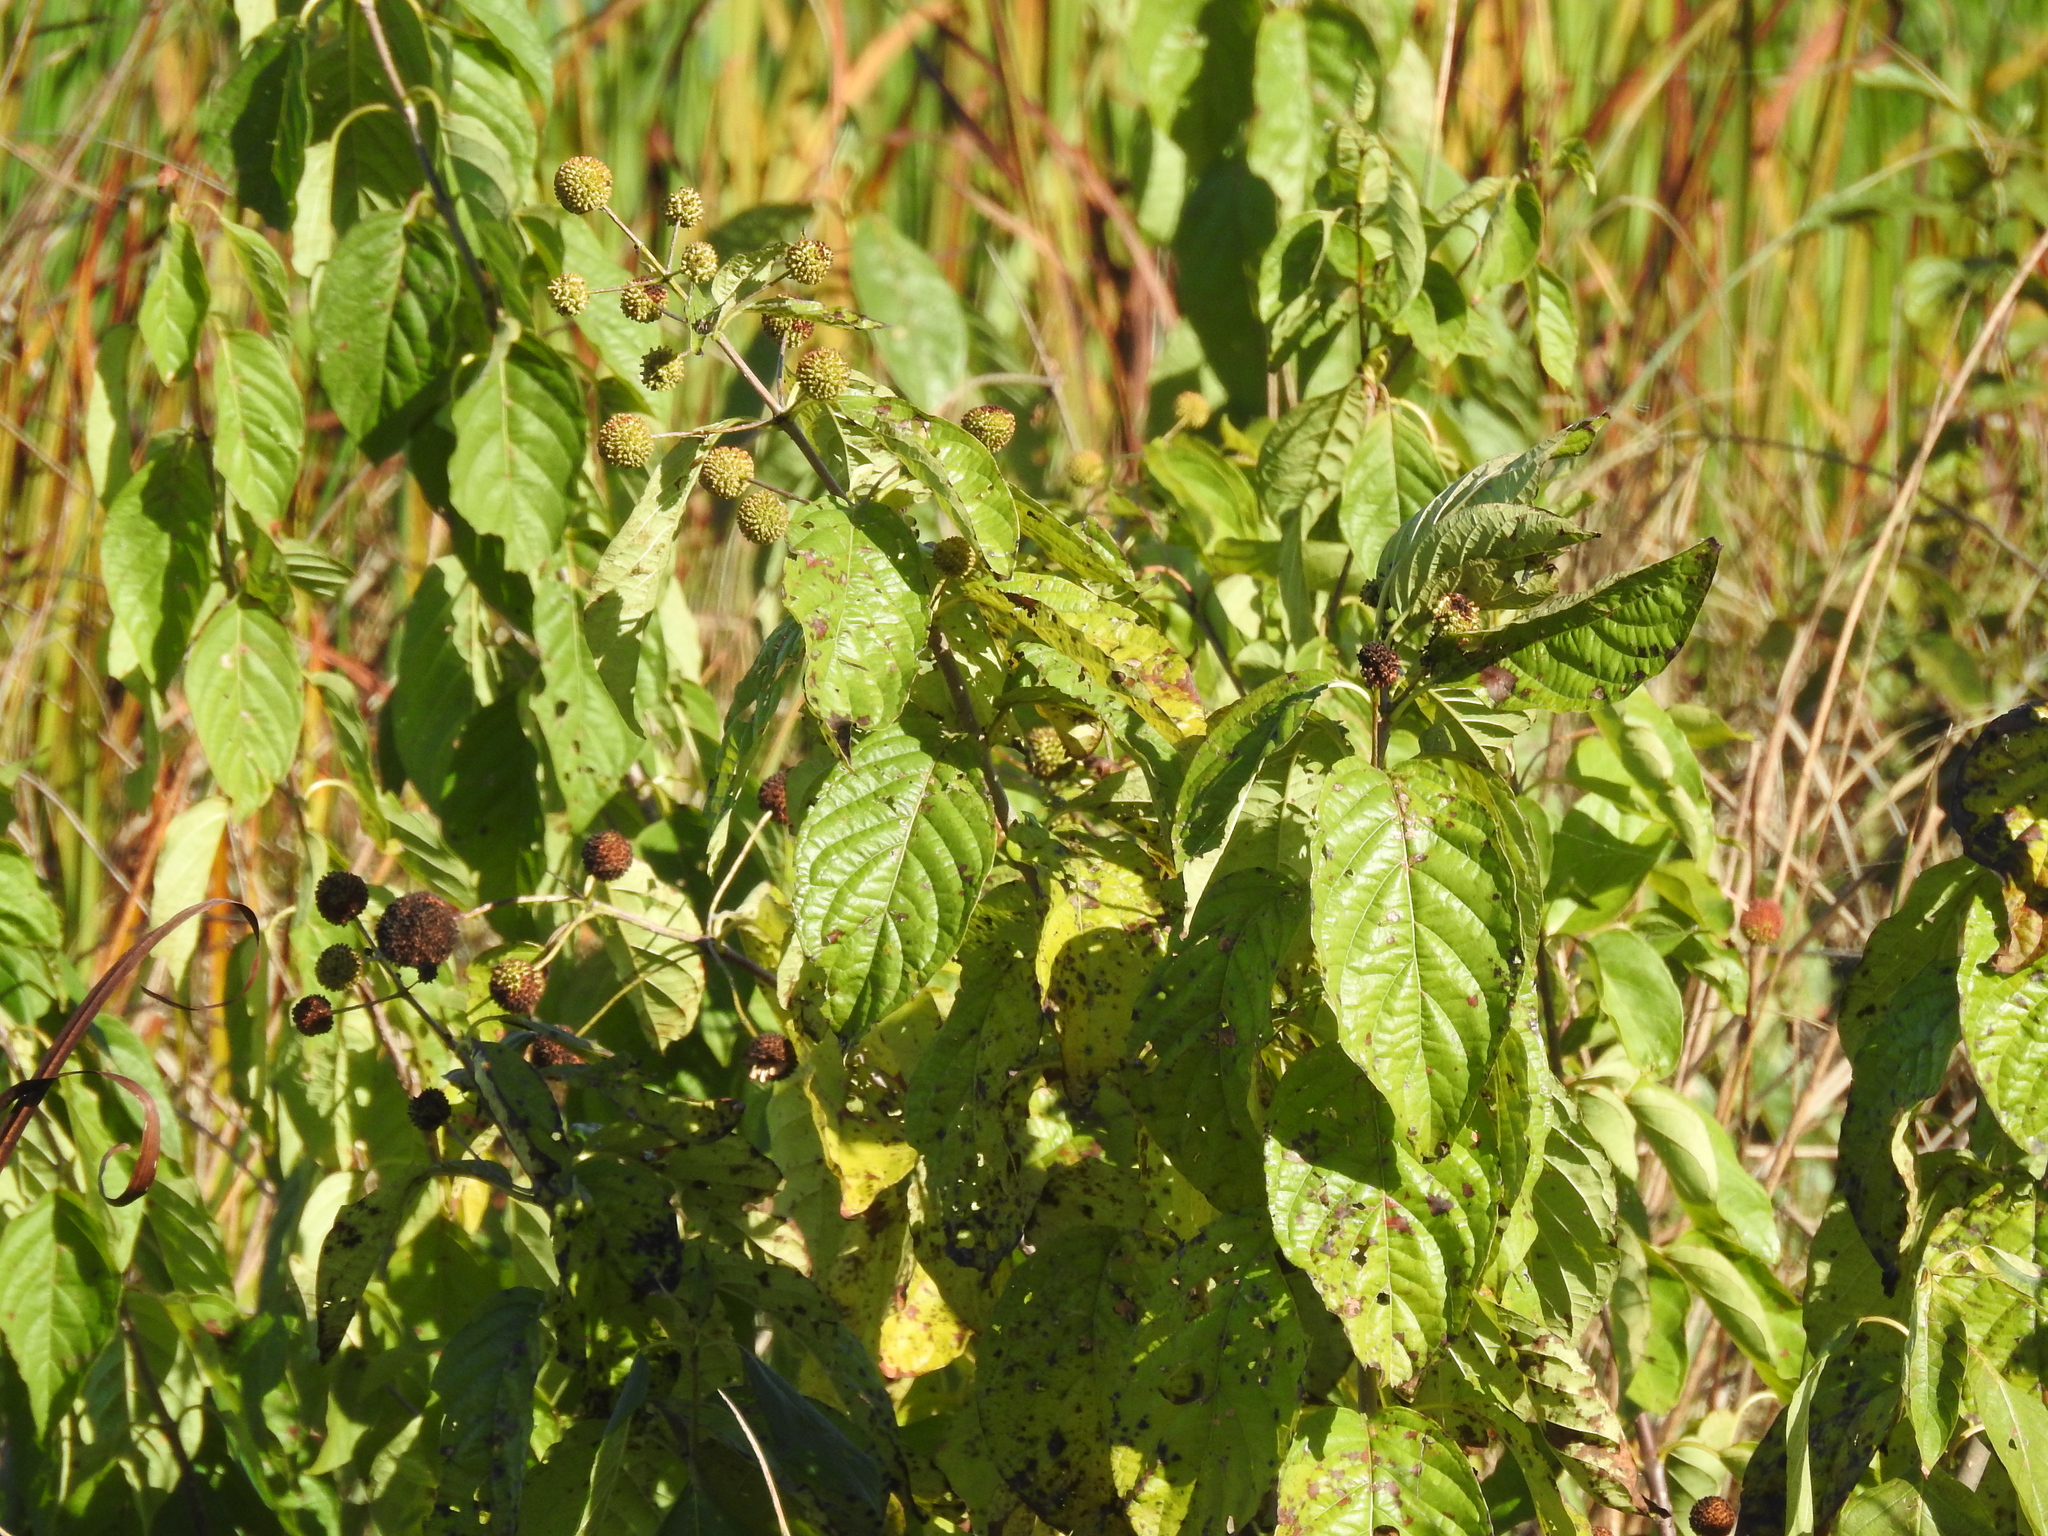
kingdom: Plantae
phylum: Tracheophyta
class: Magnoliopsida
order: Gentianales
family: Rubiaceae
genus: Cephalanthus
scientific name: Cephalanthus occidentalis
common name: Button-willow
